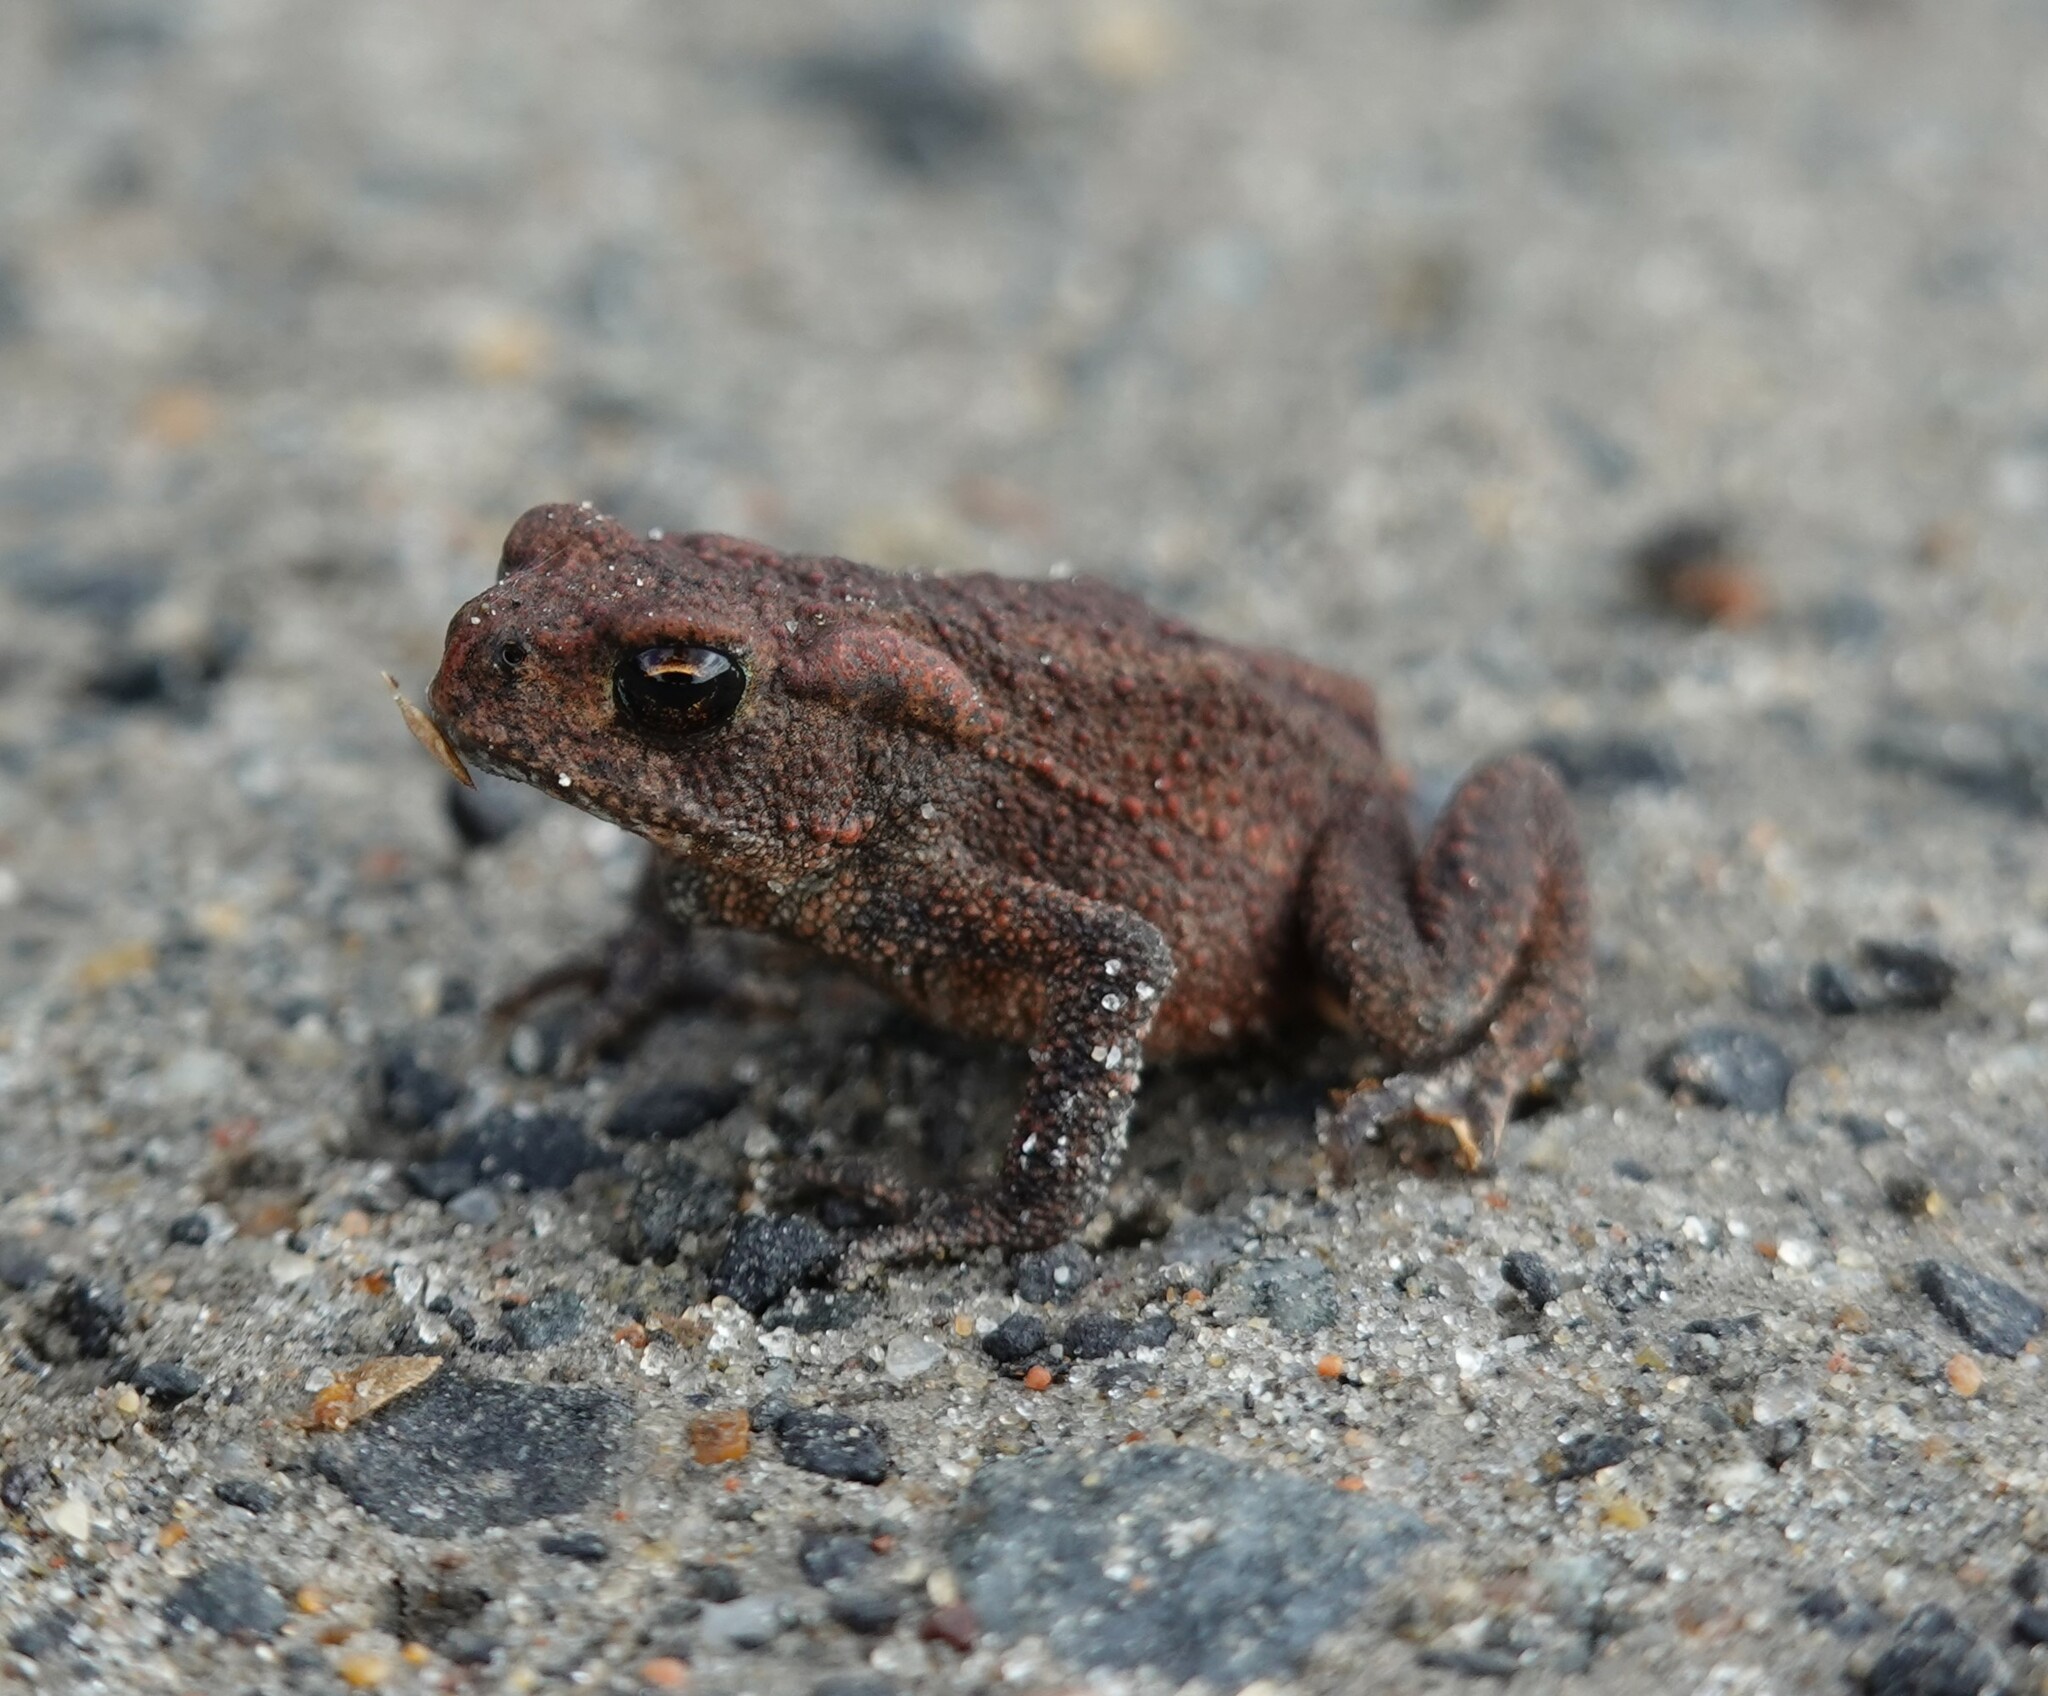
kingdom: Animalia
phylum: Chordata
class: Amphibia
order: Anura
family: Bufonidae
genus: Bufo
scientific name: Bufo bufo
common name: Common toad
